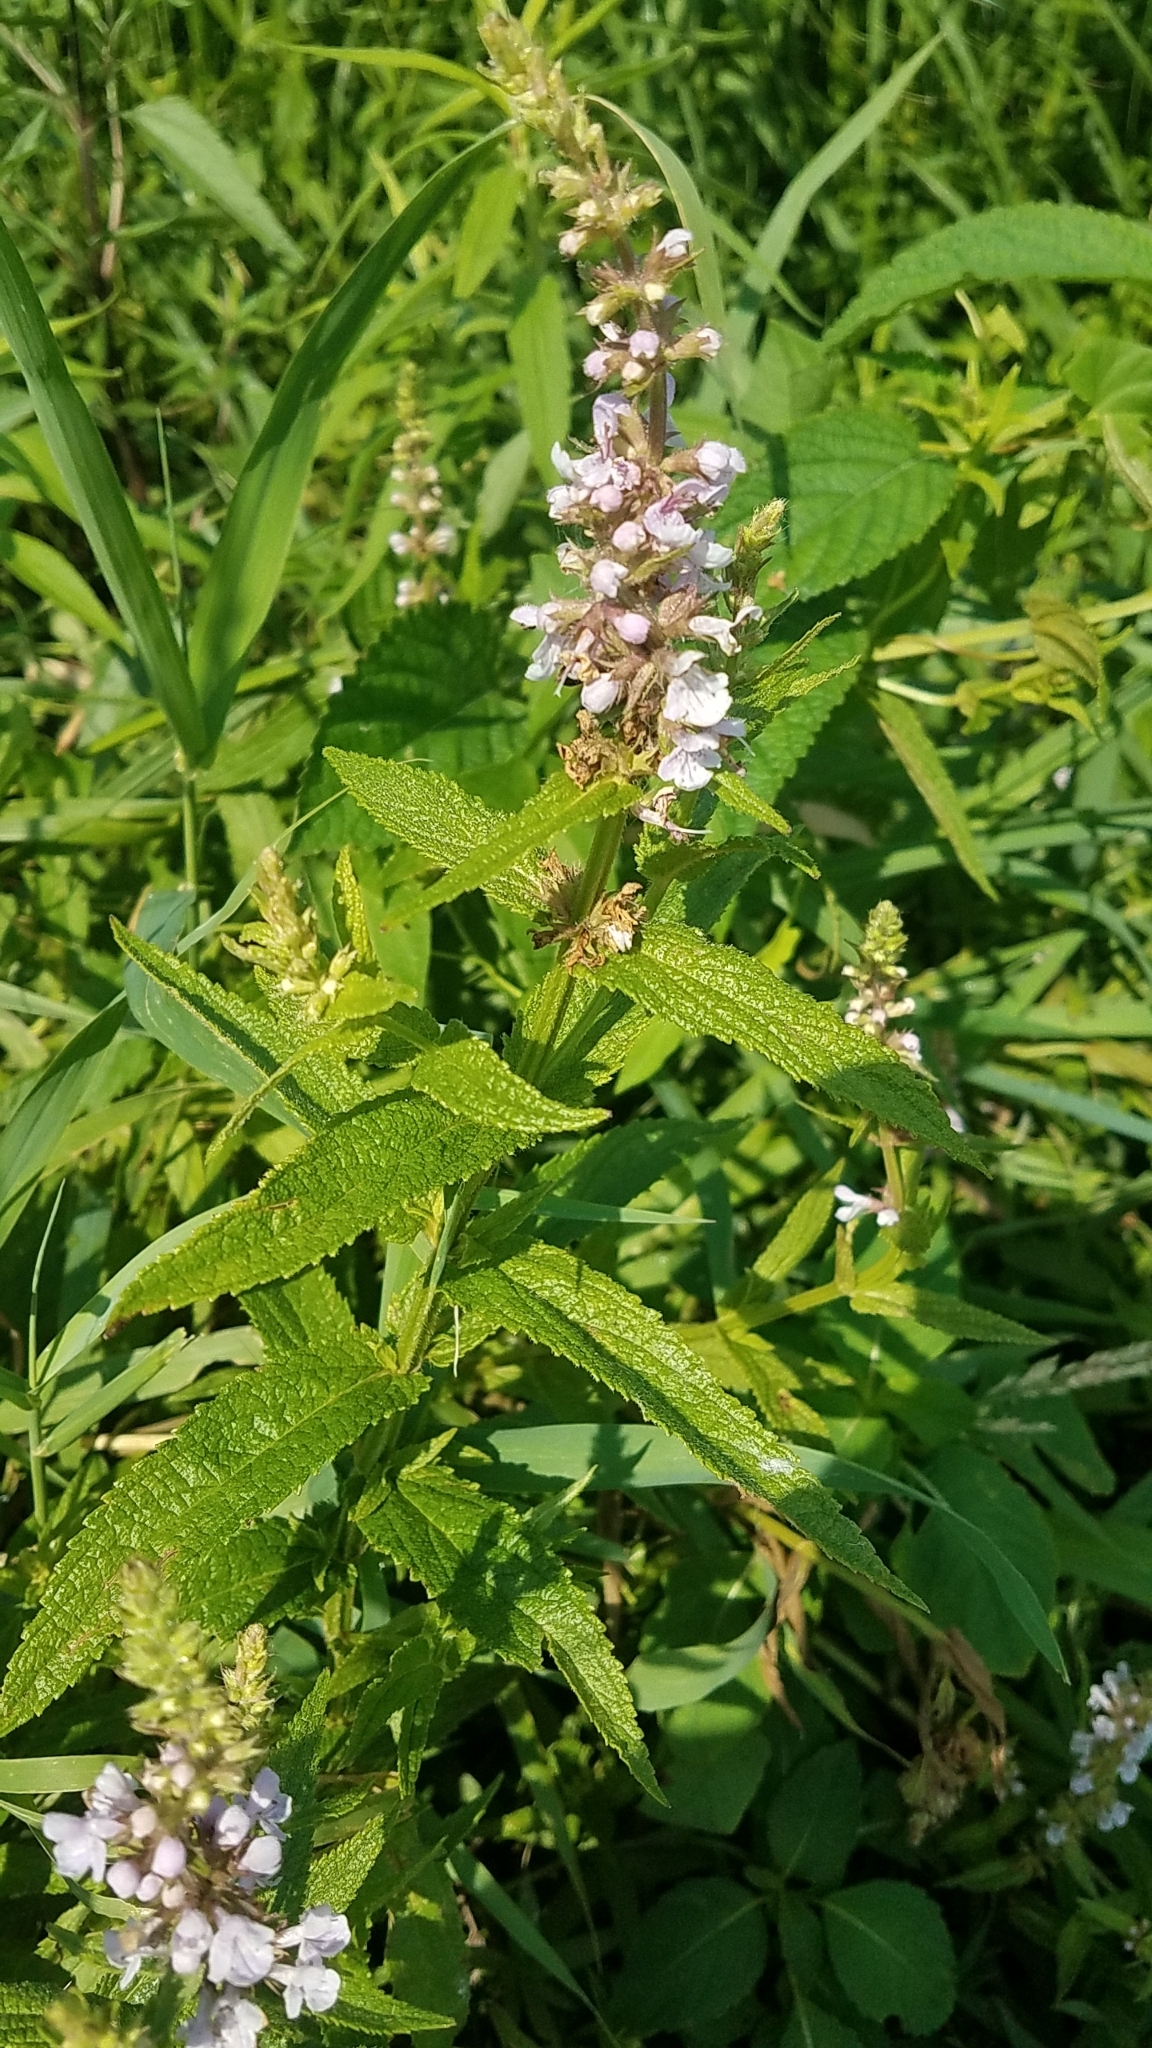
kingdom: Plantae
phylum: Tracheophyta
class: Magnoliopsida
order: Lamiales
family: Lamiaceae
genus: Stachys
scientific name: Stachys hispida
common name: Hispid hedge-nettle
